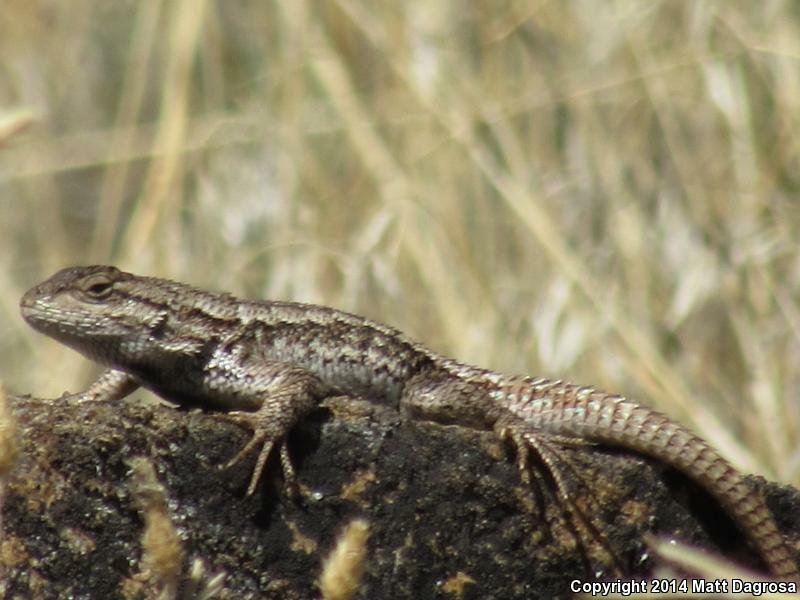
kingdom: Animalia
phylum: Chordata
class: Squamata
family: Phrynosomatidae
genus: Sceloporus
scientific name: Sceloporus occidentalis
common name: Western fence lizard
